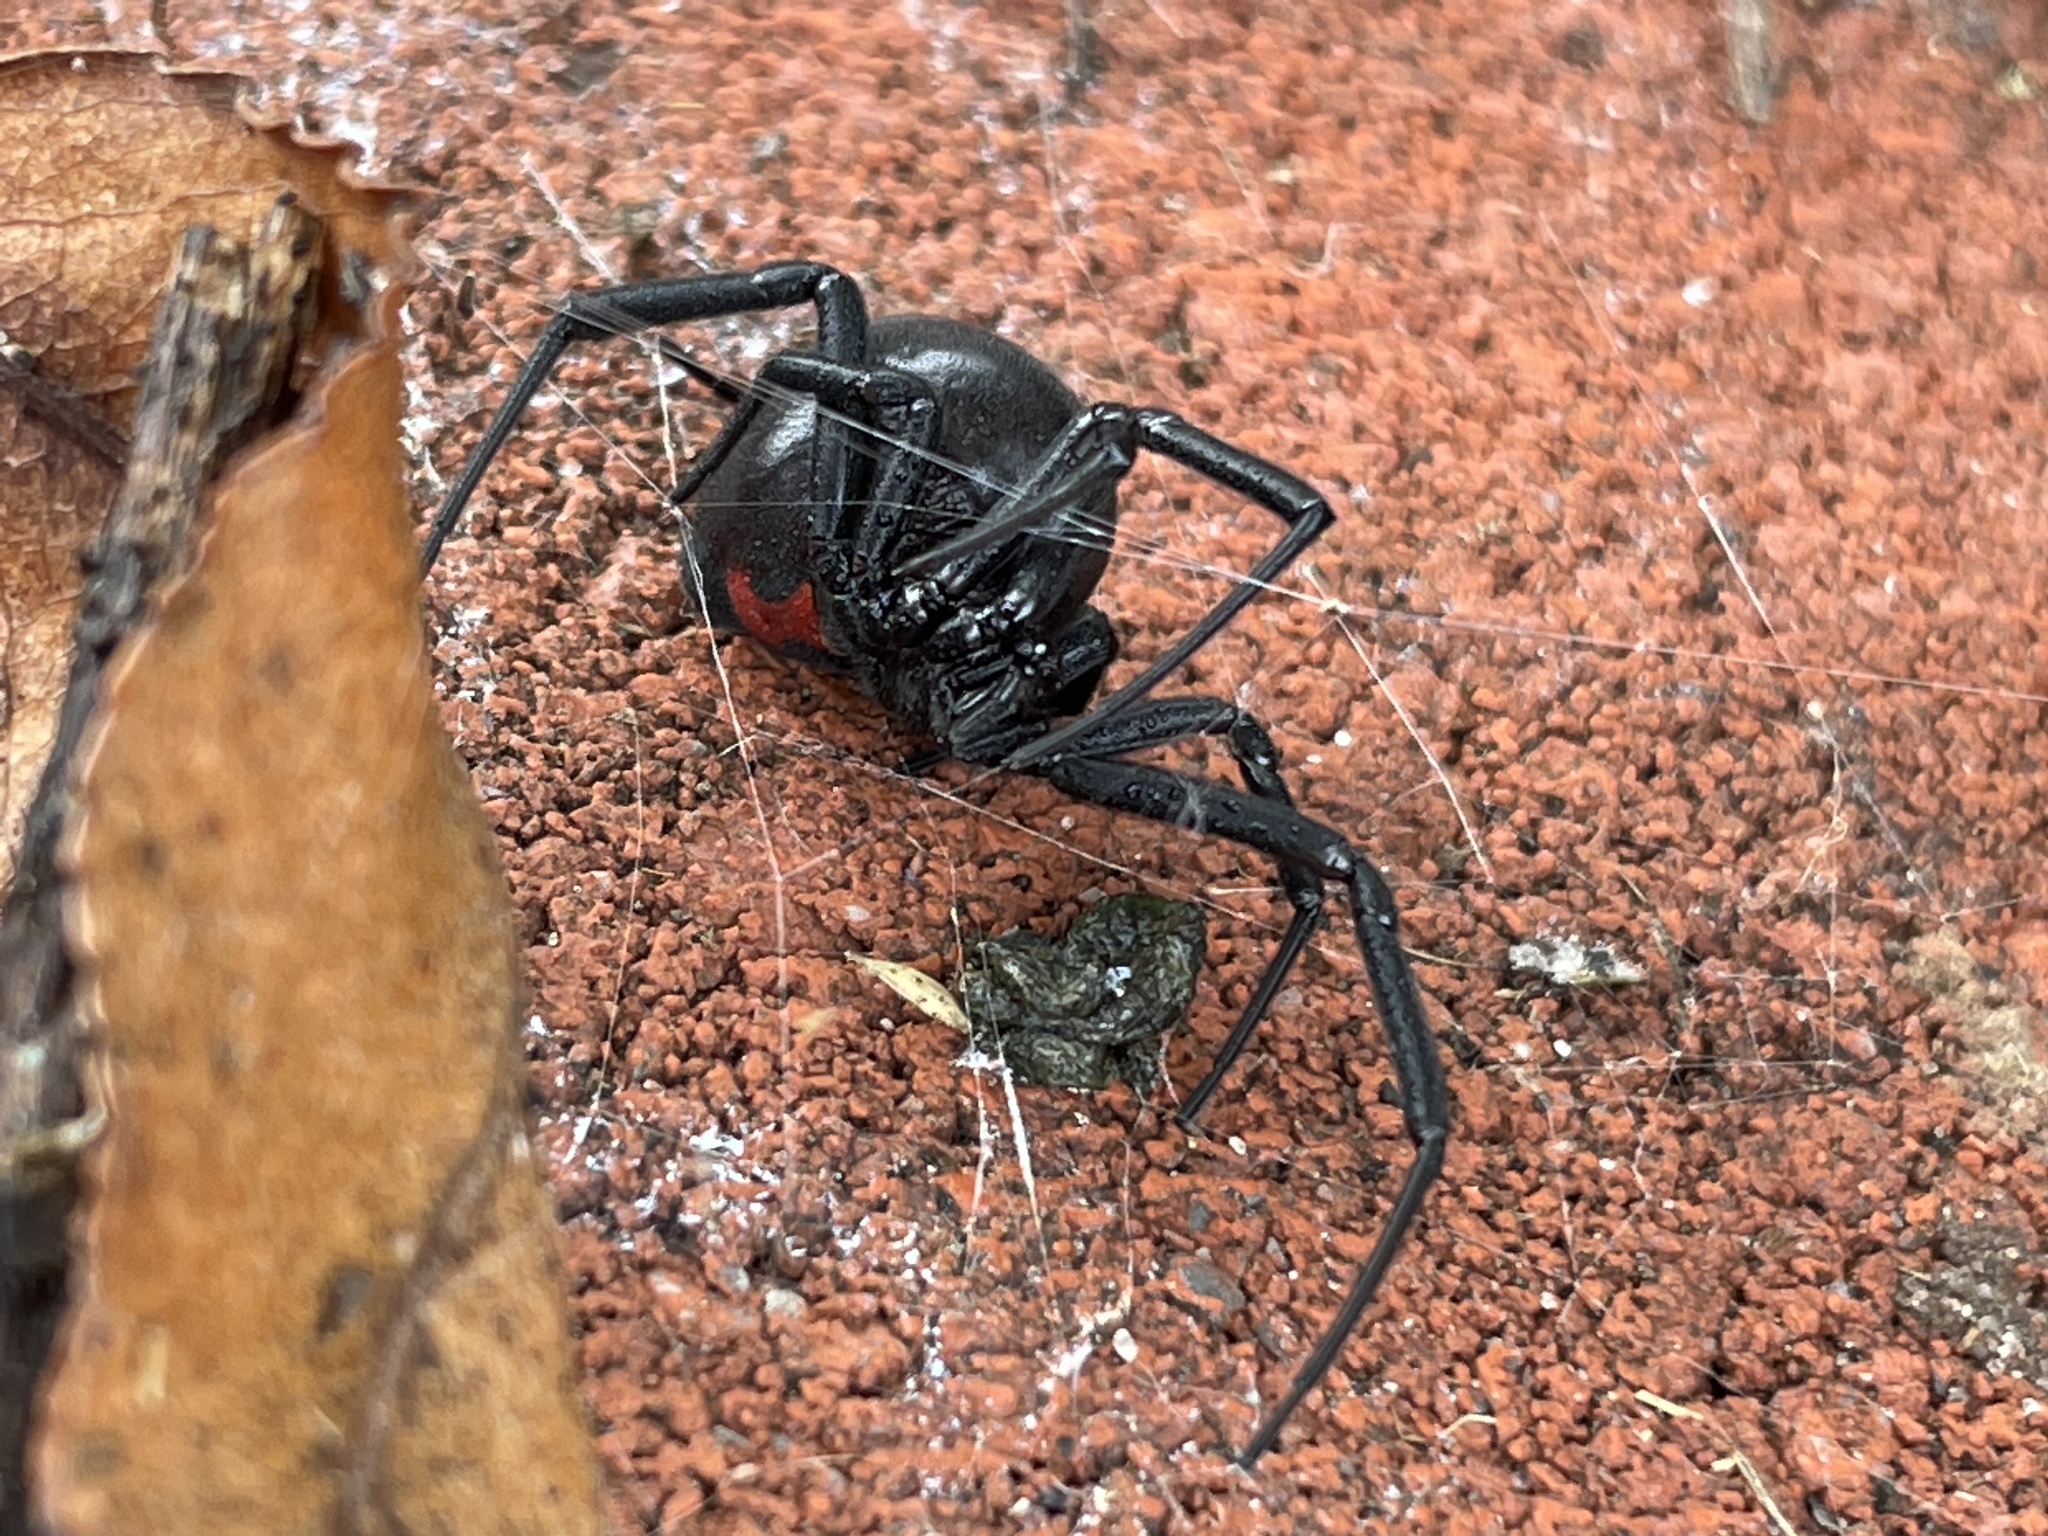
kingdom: Animalia
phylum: Arthropoda
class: Arachnida
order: Araneae
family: Theridiidae
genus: Latrodectus
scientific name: Latrodectus mactans
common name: Cobweb spiders
